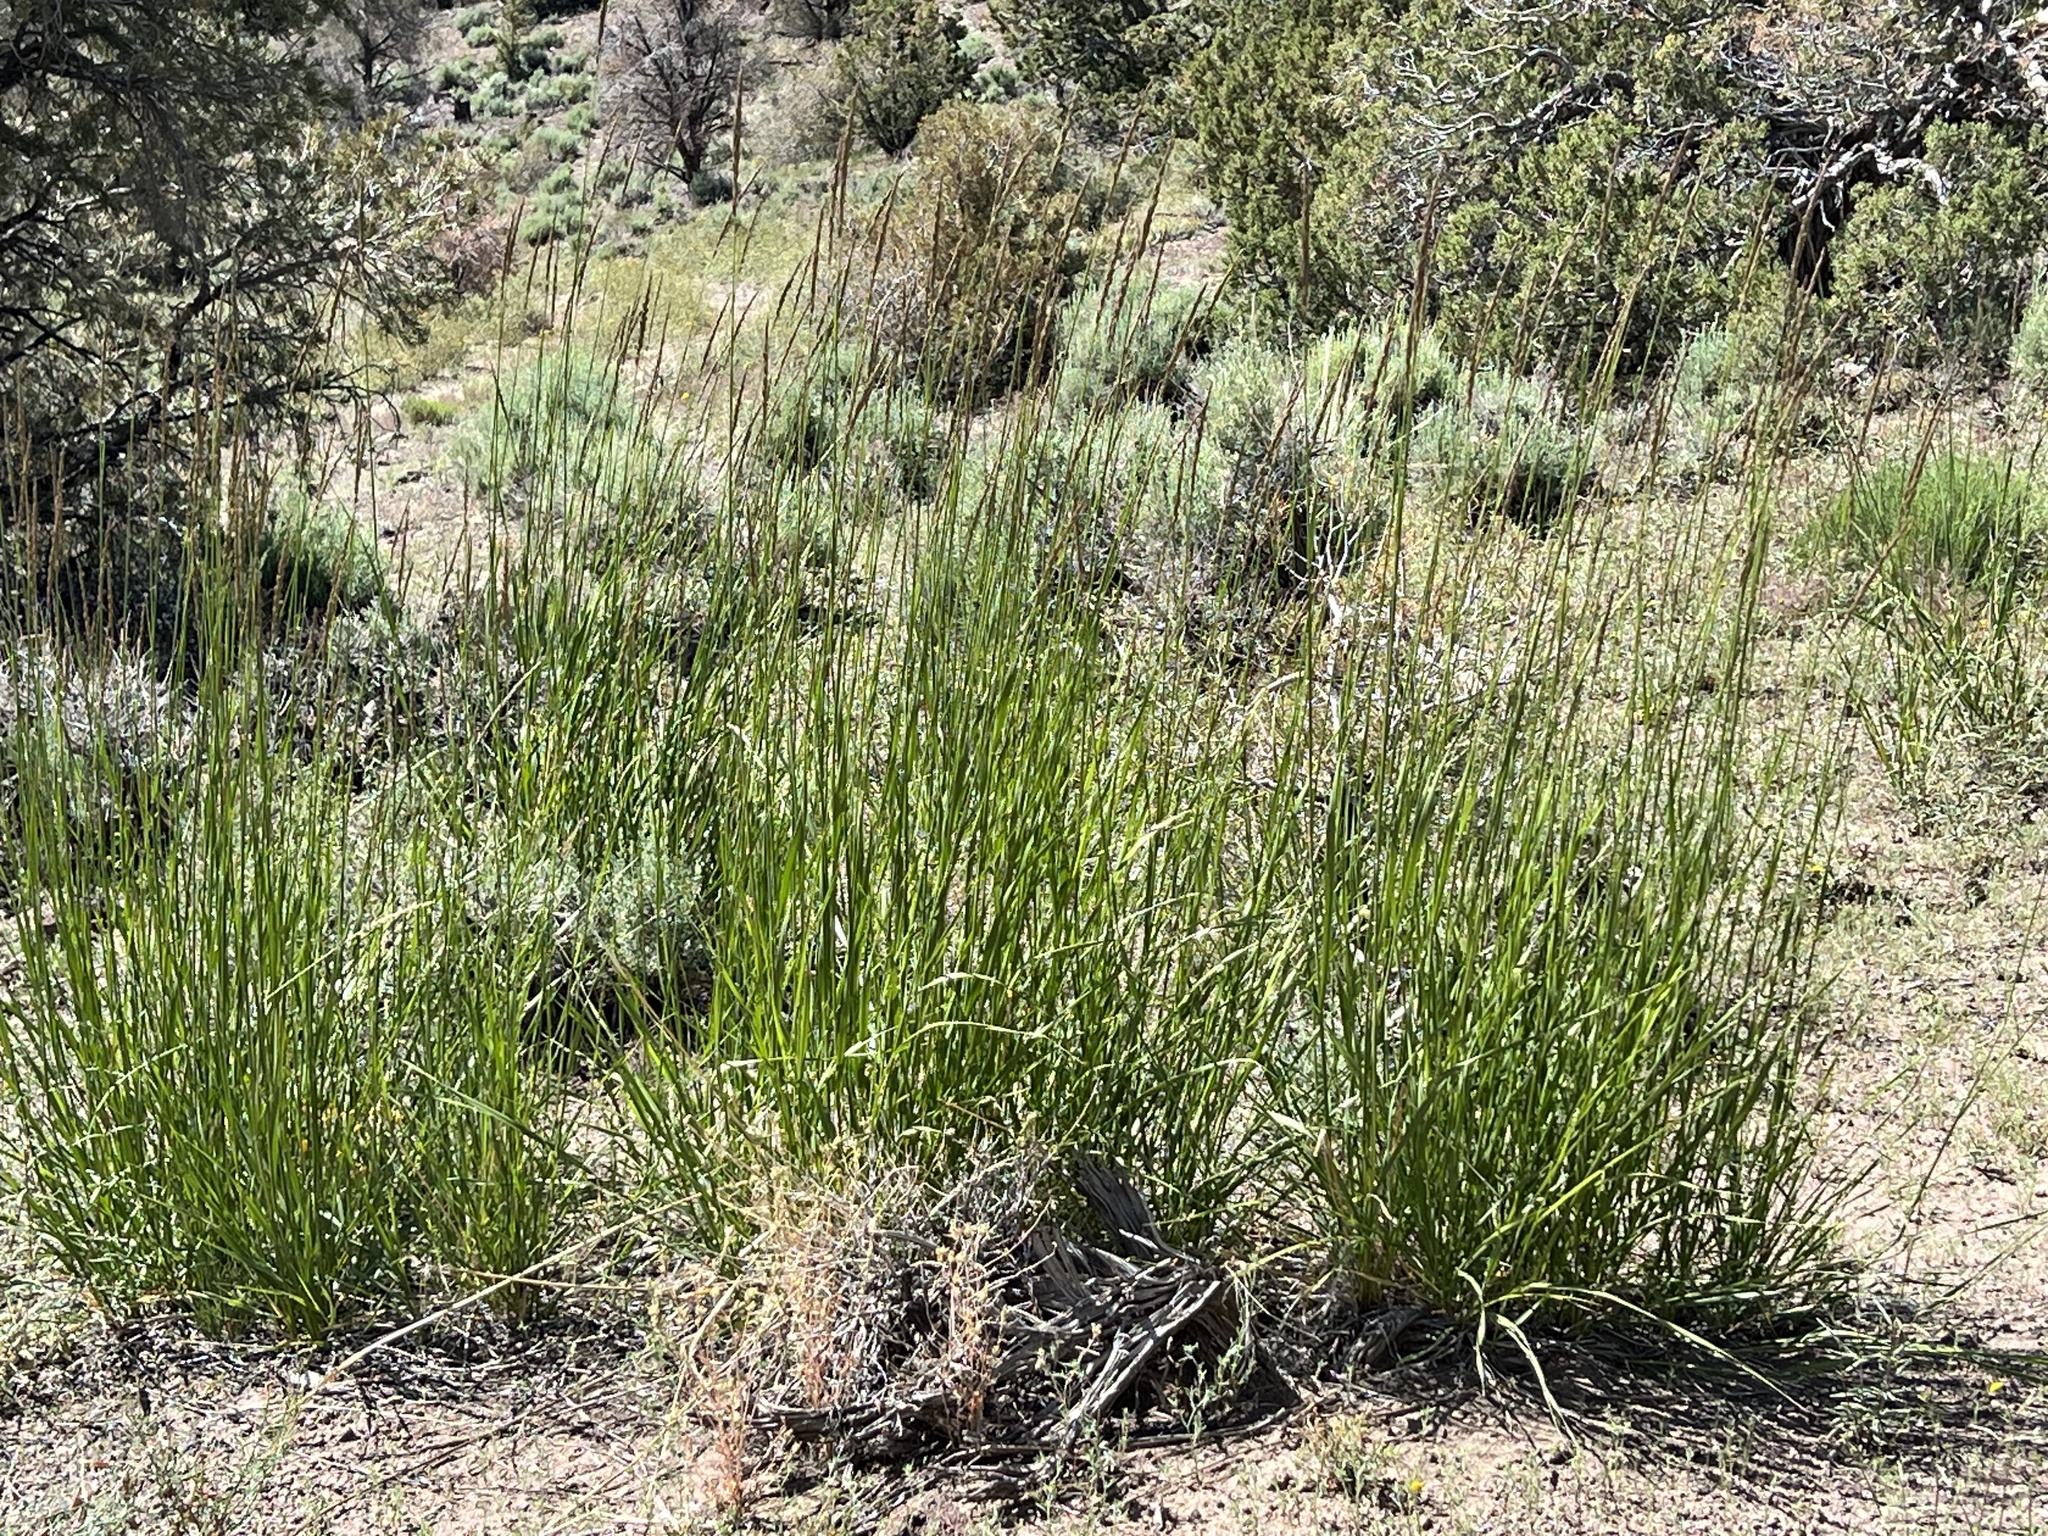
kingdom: Plantae
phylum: Tracheophyta
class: Liliopsida
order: Poales
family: Poaceae
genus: Leymus
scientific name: Leymus cinereus
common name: Basin wild rye
